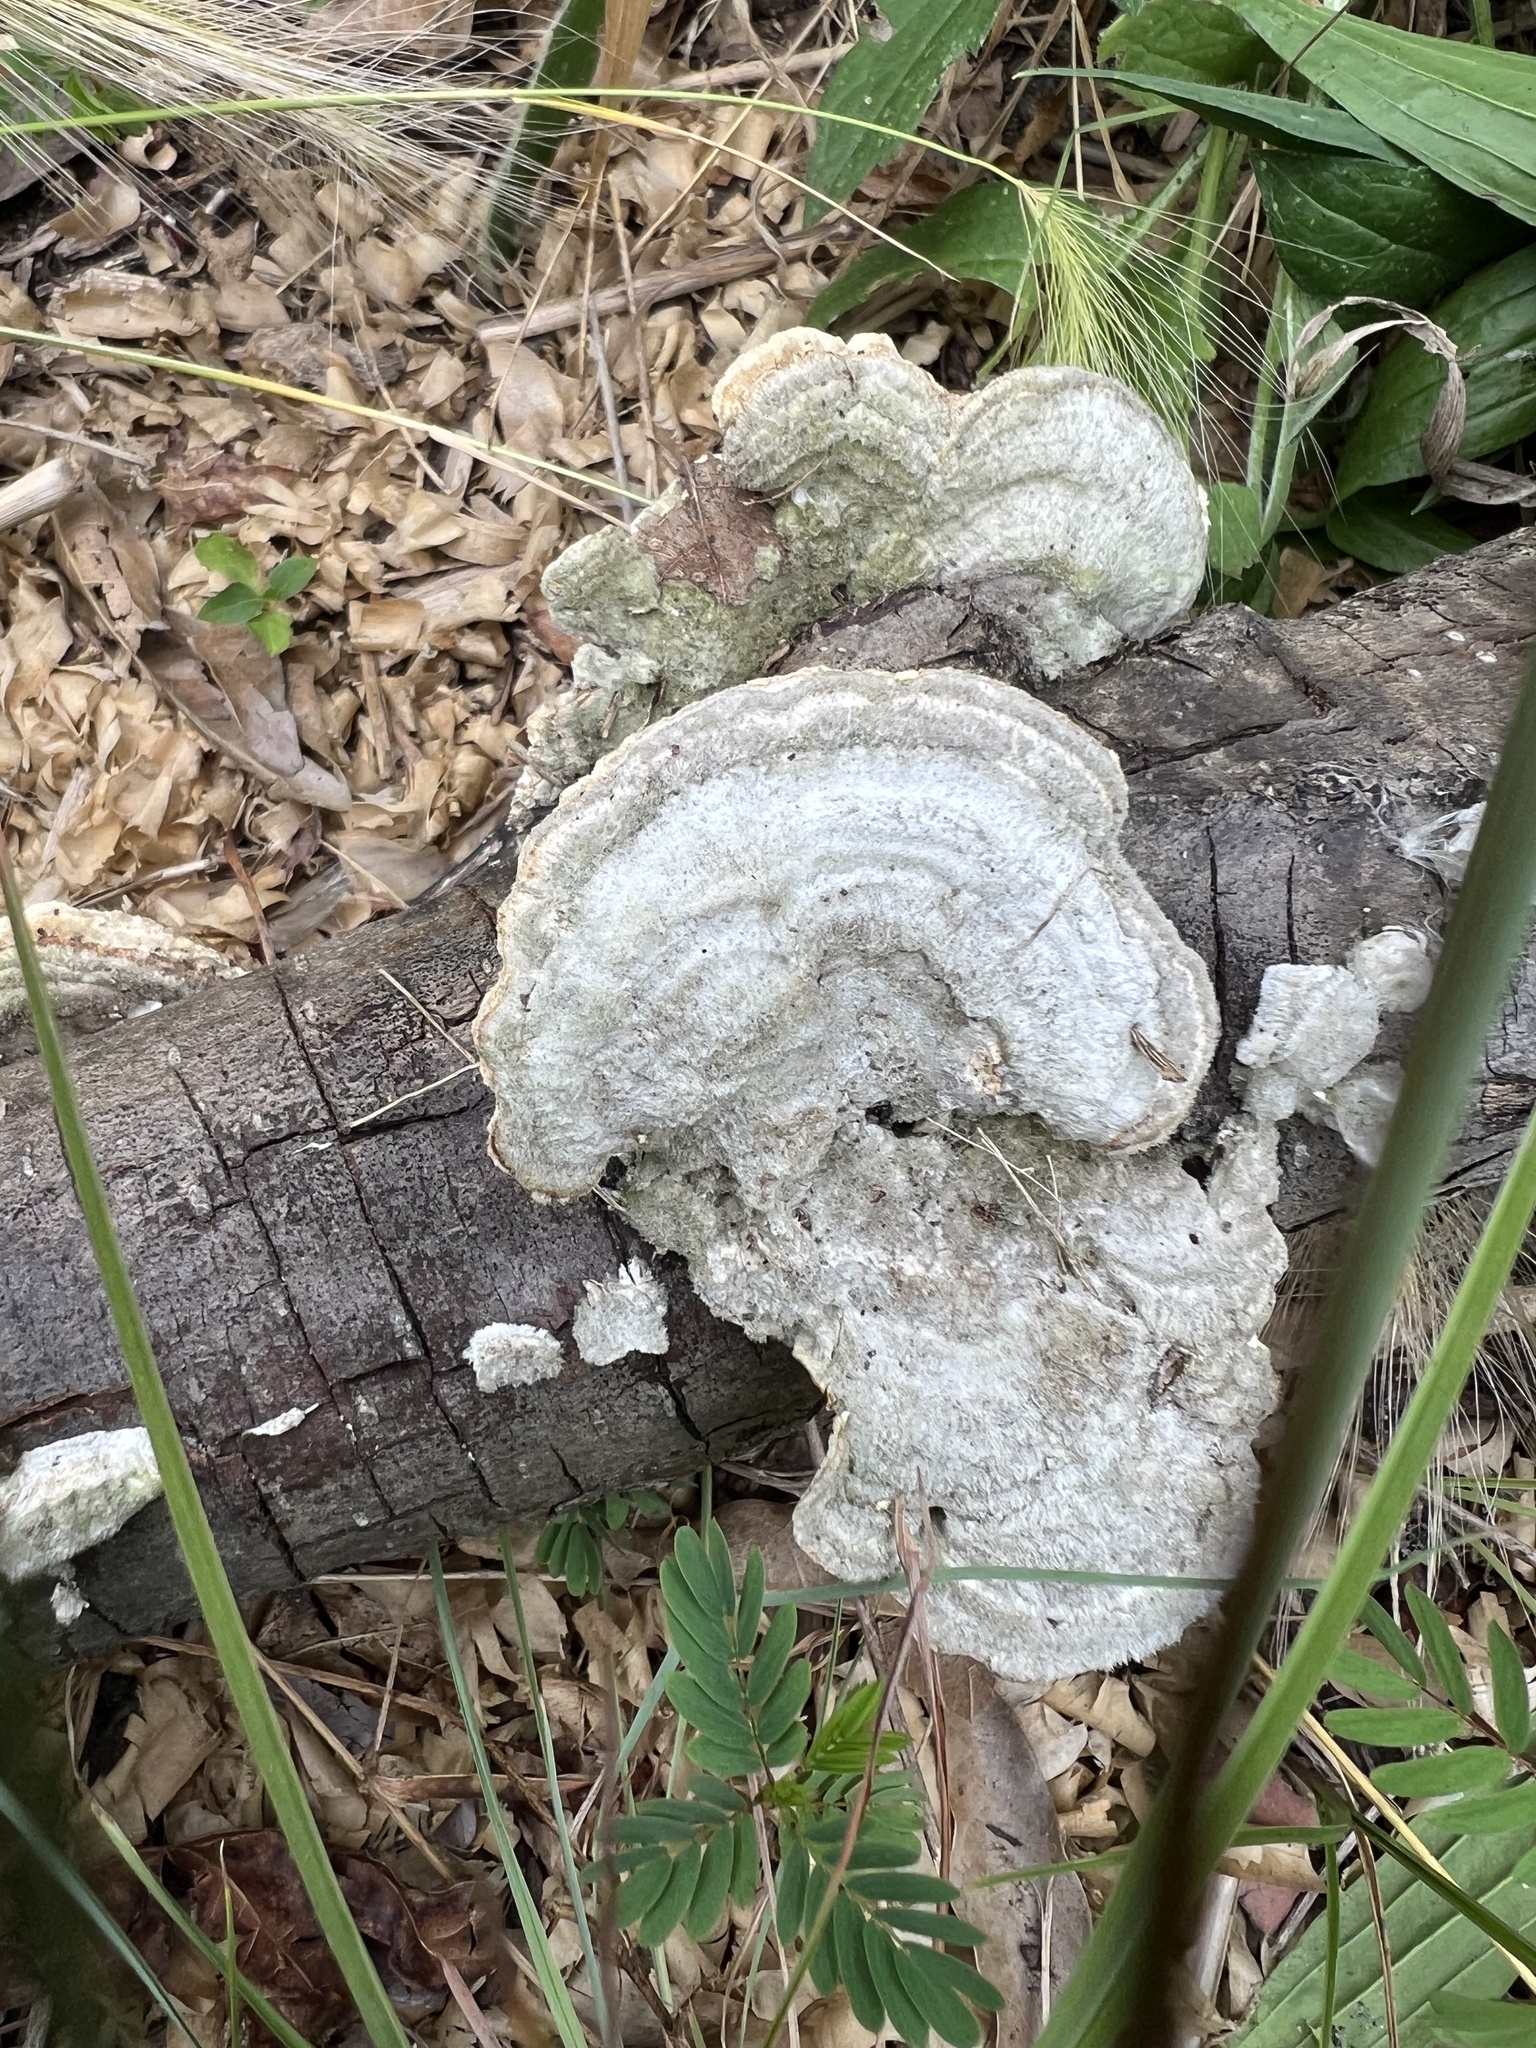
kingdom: Fungi
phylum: Basidiomycota
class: Agaricomycetes
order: Polyporales
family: Polyporaceae
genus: Trametes
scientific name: Trametes hirsuta
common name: Hairy bracket
